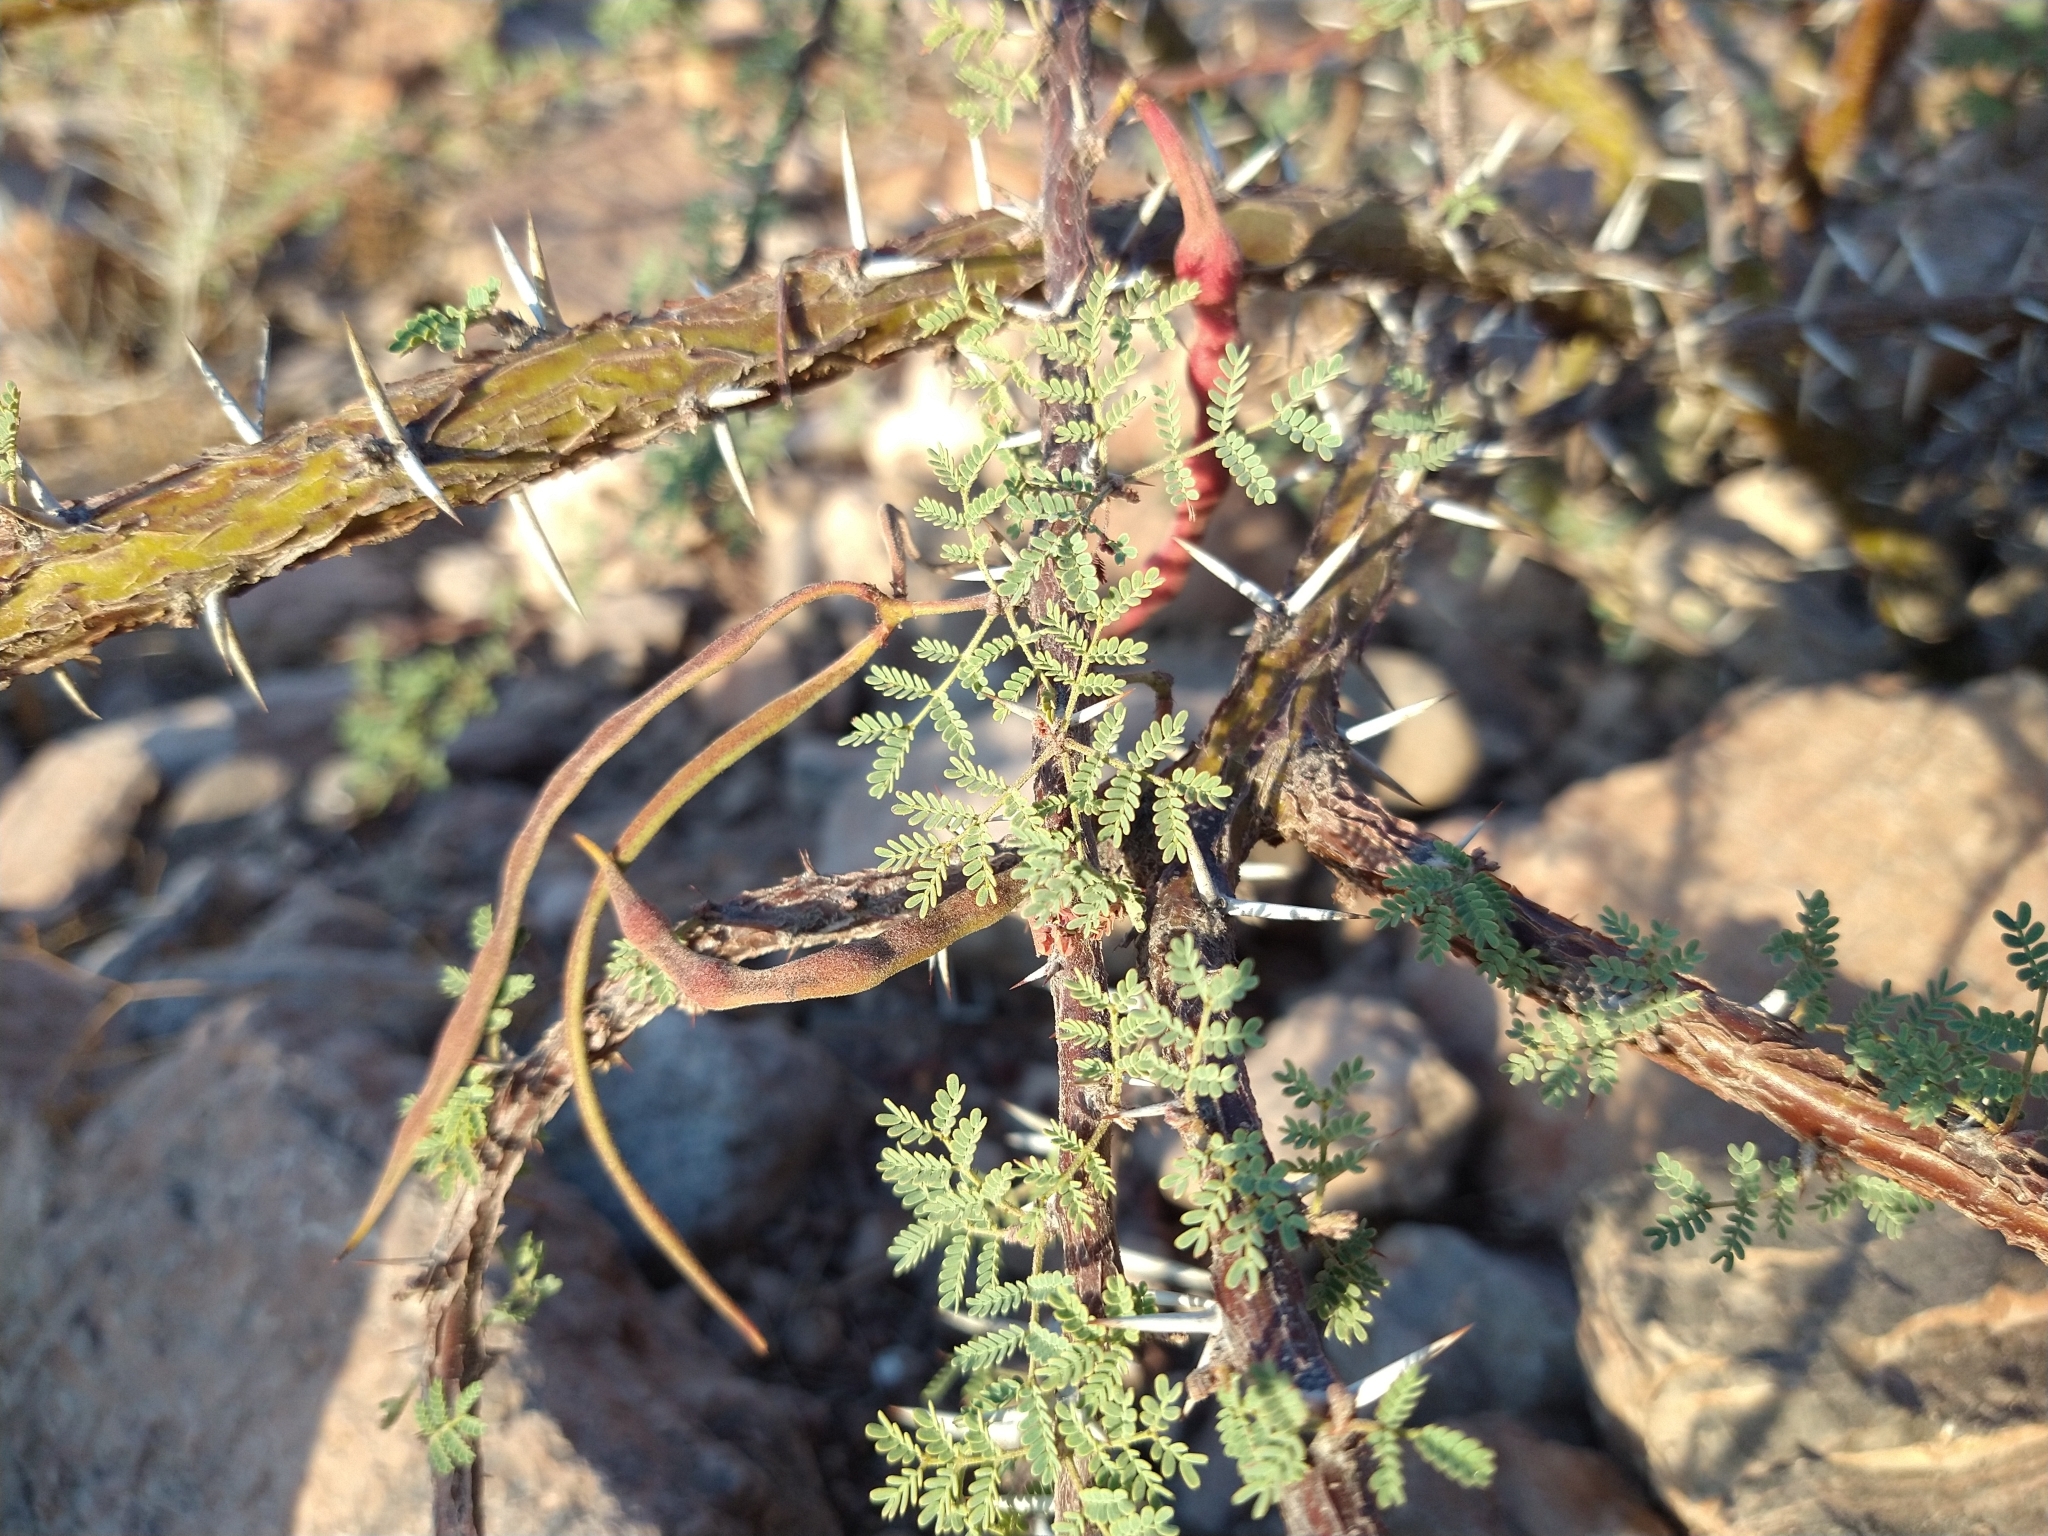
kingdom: Plantae
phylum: Tracheophyta
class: Magnoliopsida
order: Fabales
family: Fabaceae
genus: Vachellia
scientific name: Vachellia pacensis
